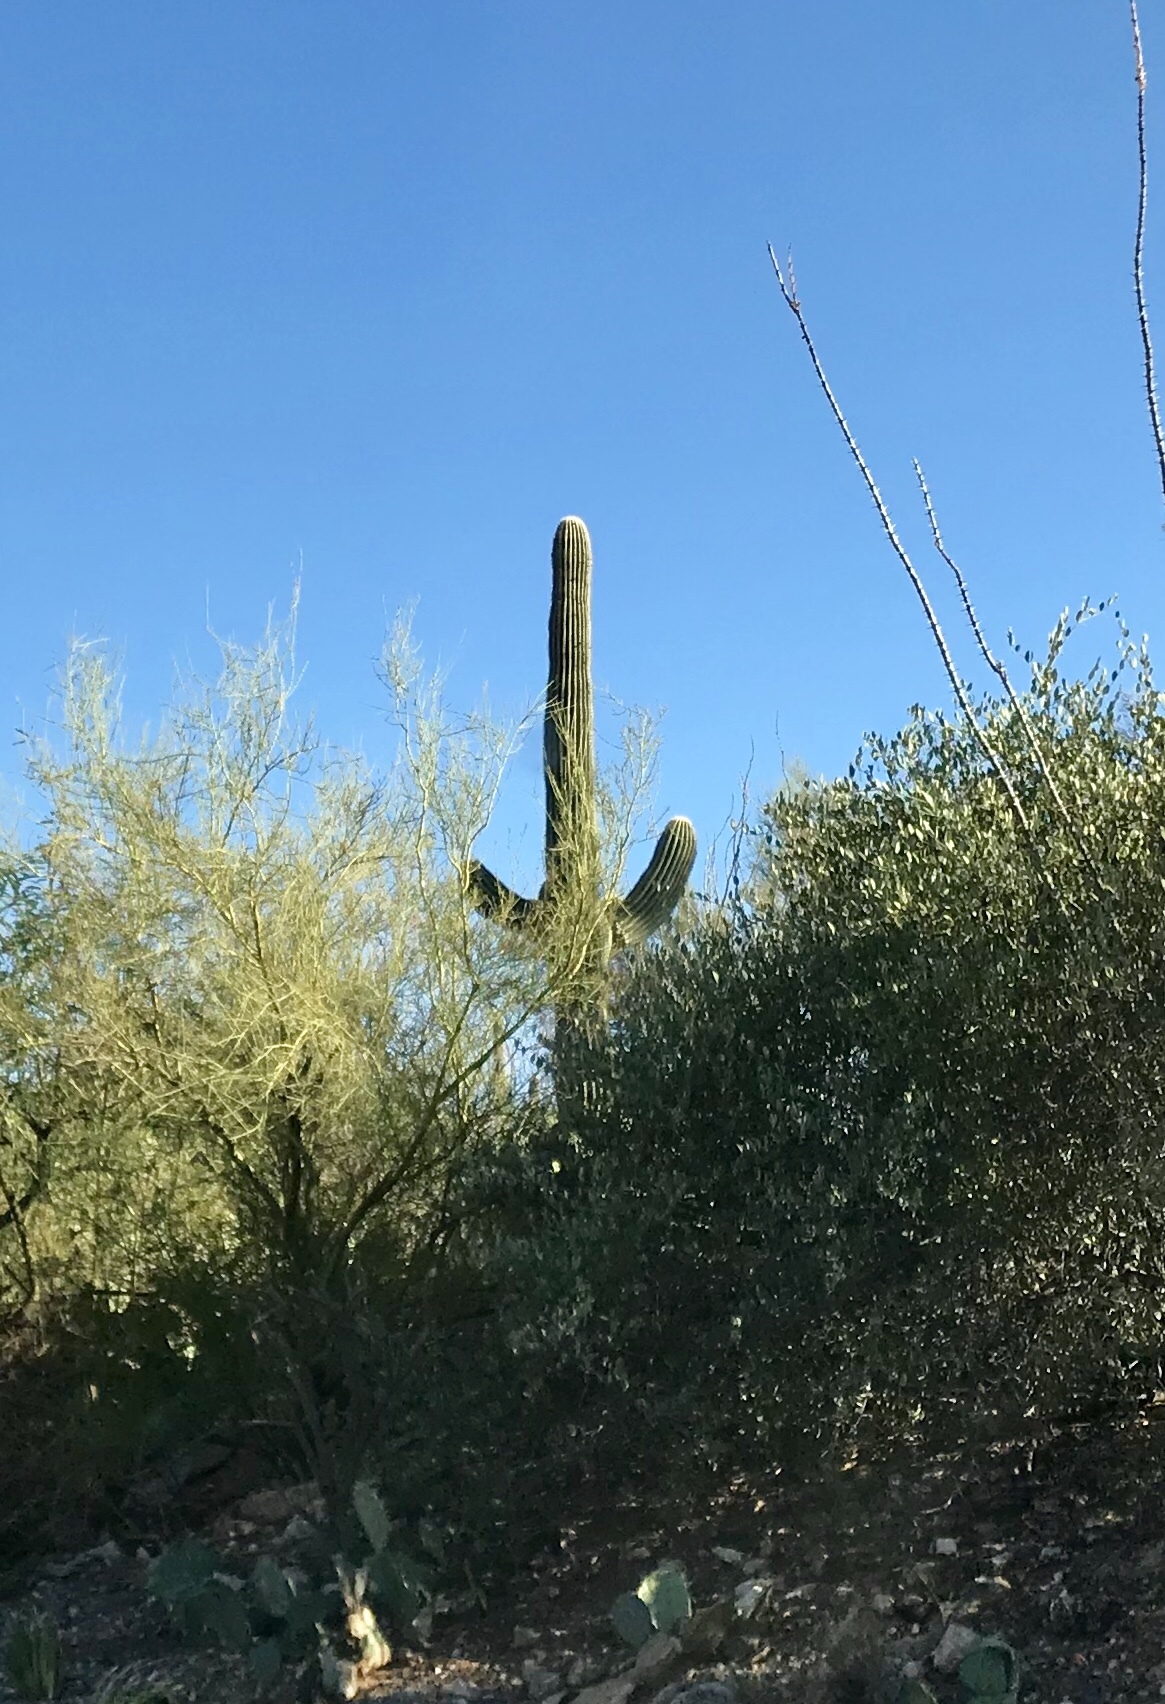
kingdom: Plantae
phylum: Tracheophyta
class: Magnoliopsida
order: Caryophyllales
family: Cactaceae
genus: Carnegiea
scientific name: Carnegiea gigantea
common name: Saguaro
